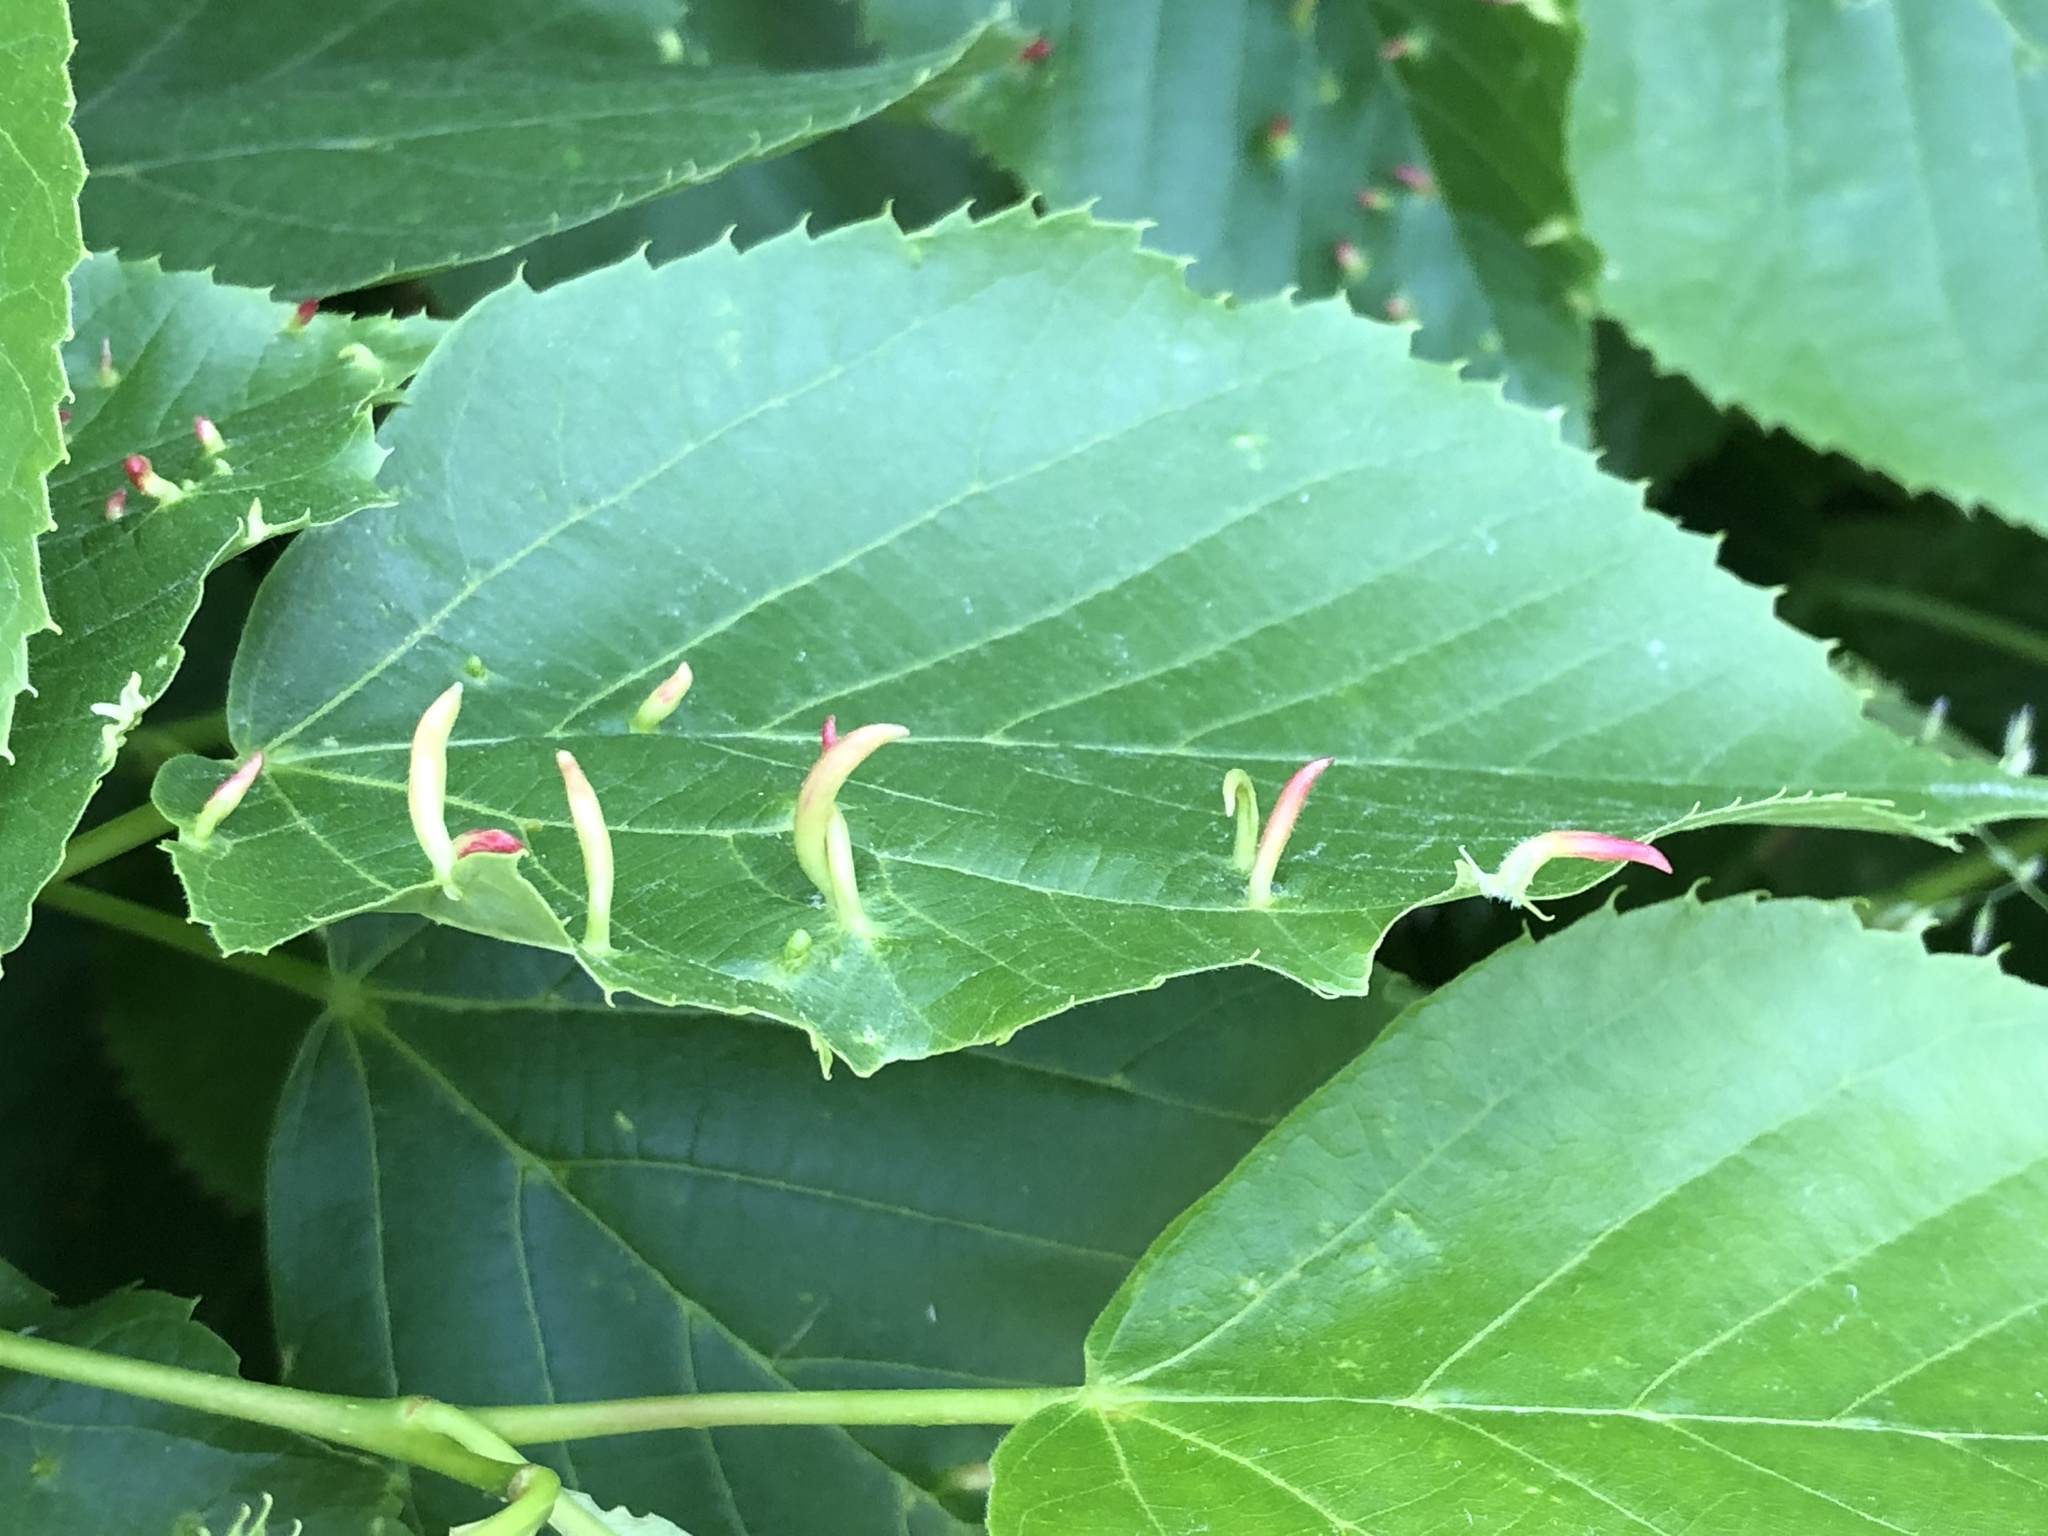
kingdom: Animalia
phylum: Arthropoda
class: Arachnida
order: Trombidiformes
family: Eriophyidae
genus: Eriophyes
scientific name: Eriophyes tiliae
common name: Red nail gall mite
